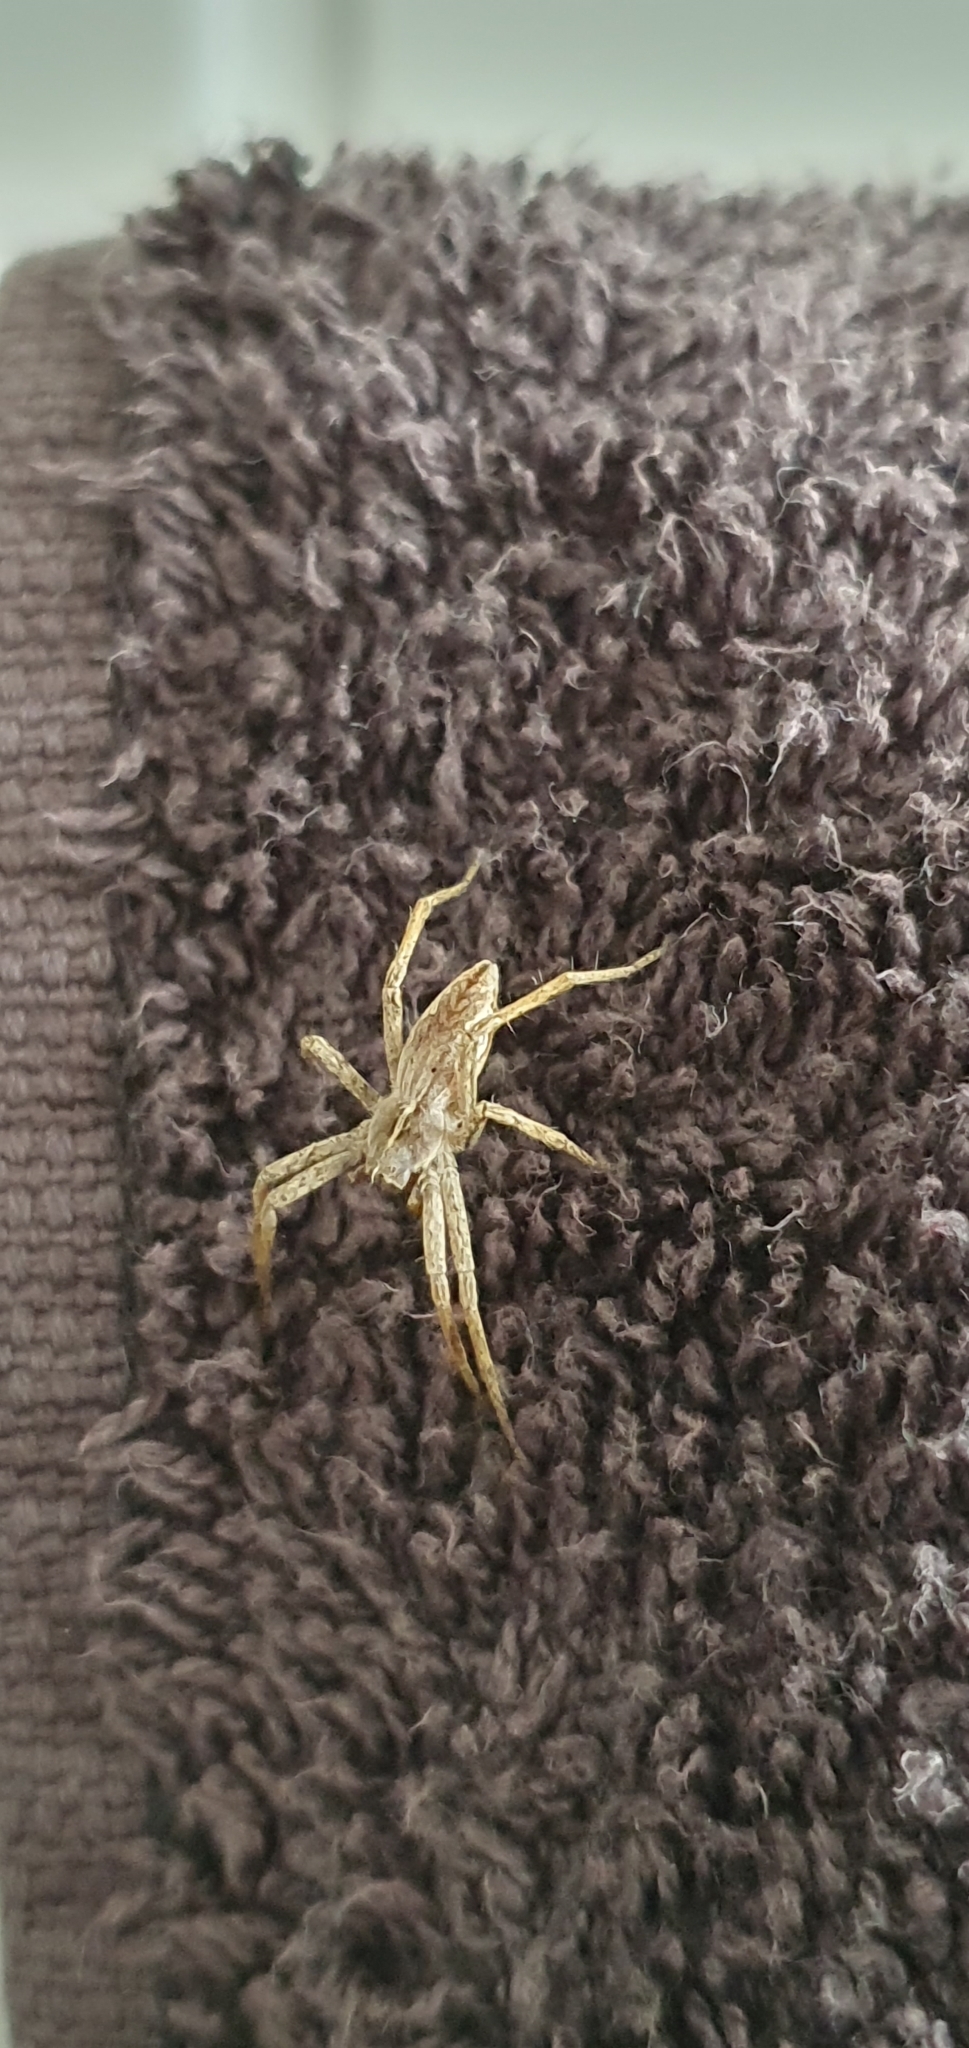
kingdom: Animalia
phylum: Arthropoda
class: Arachnida
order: Araneae
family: Pisauridae
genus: Pisaura
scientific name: Pisaura mirabilis
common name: Tent spider
